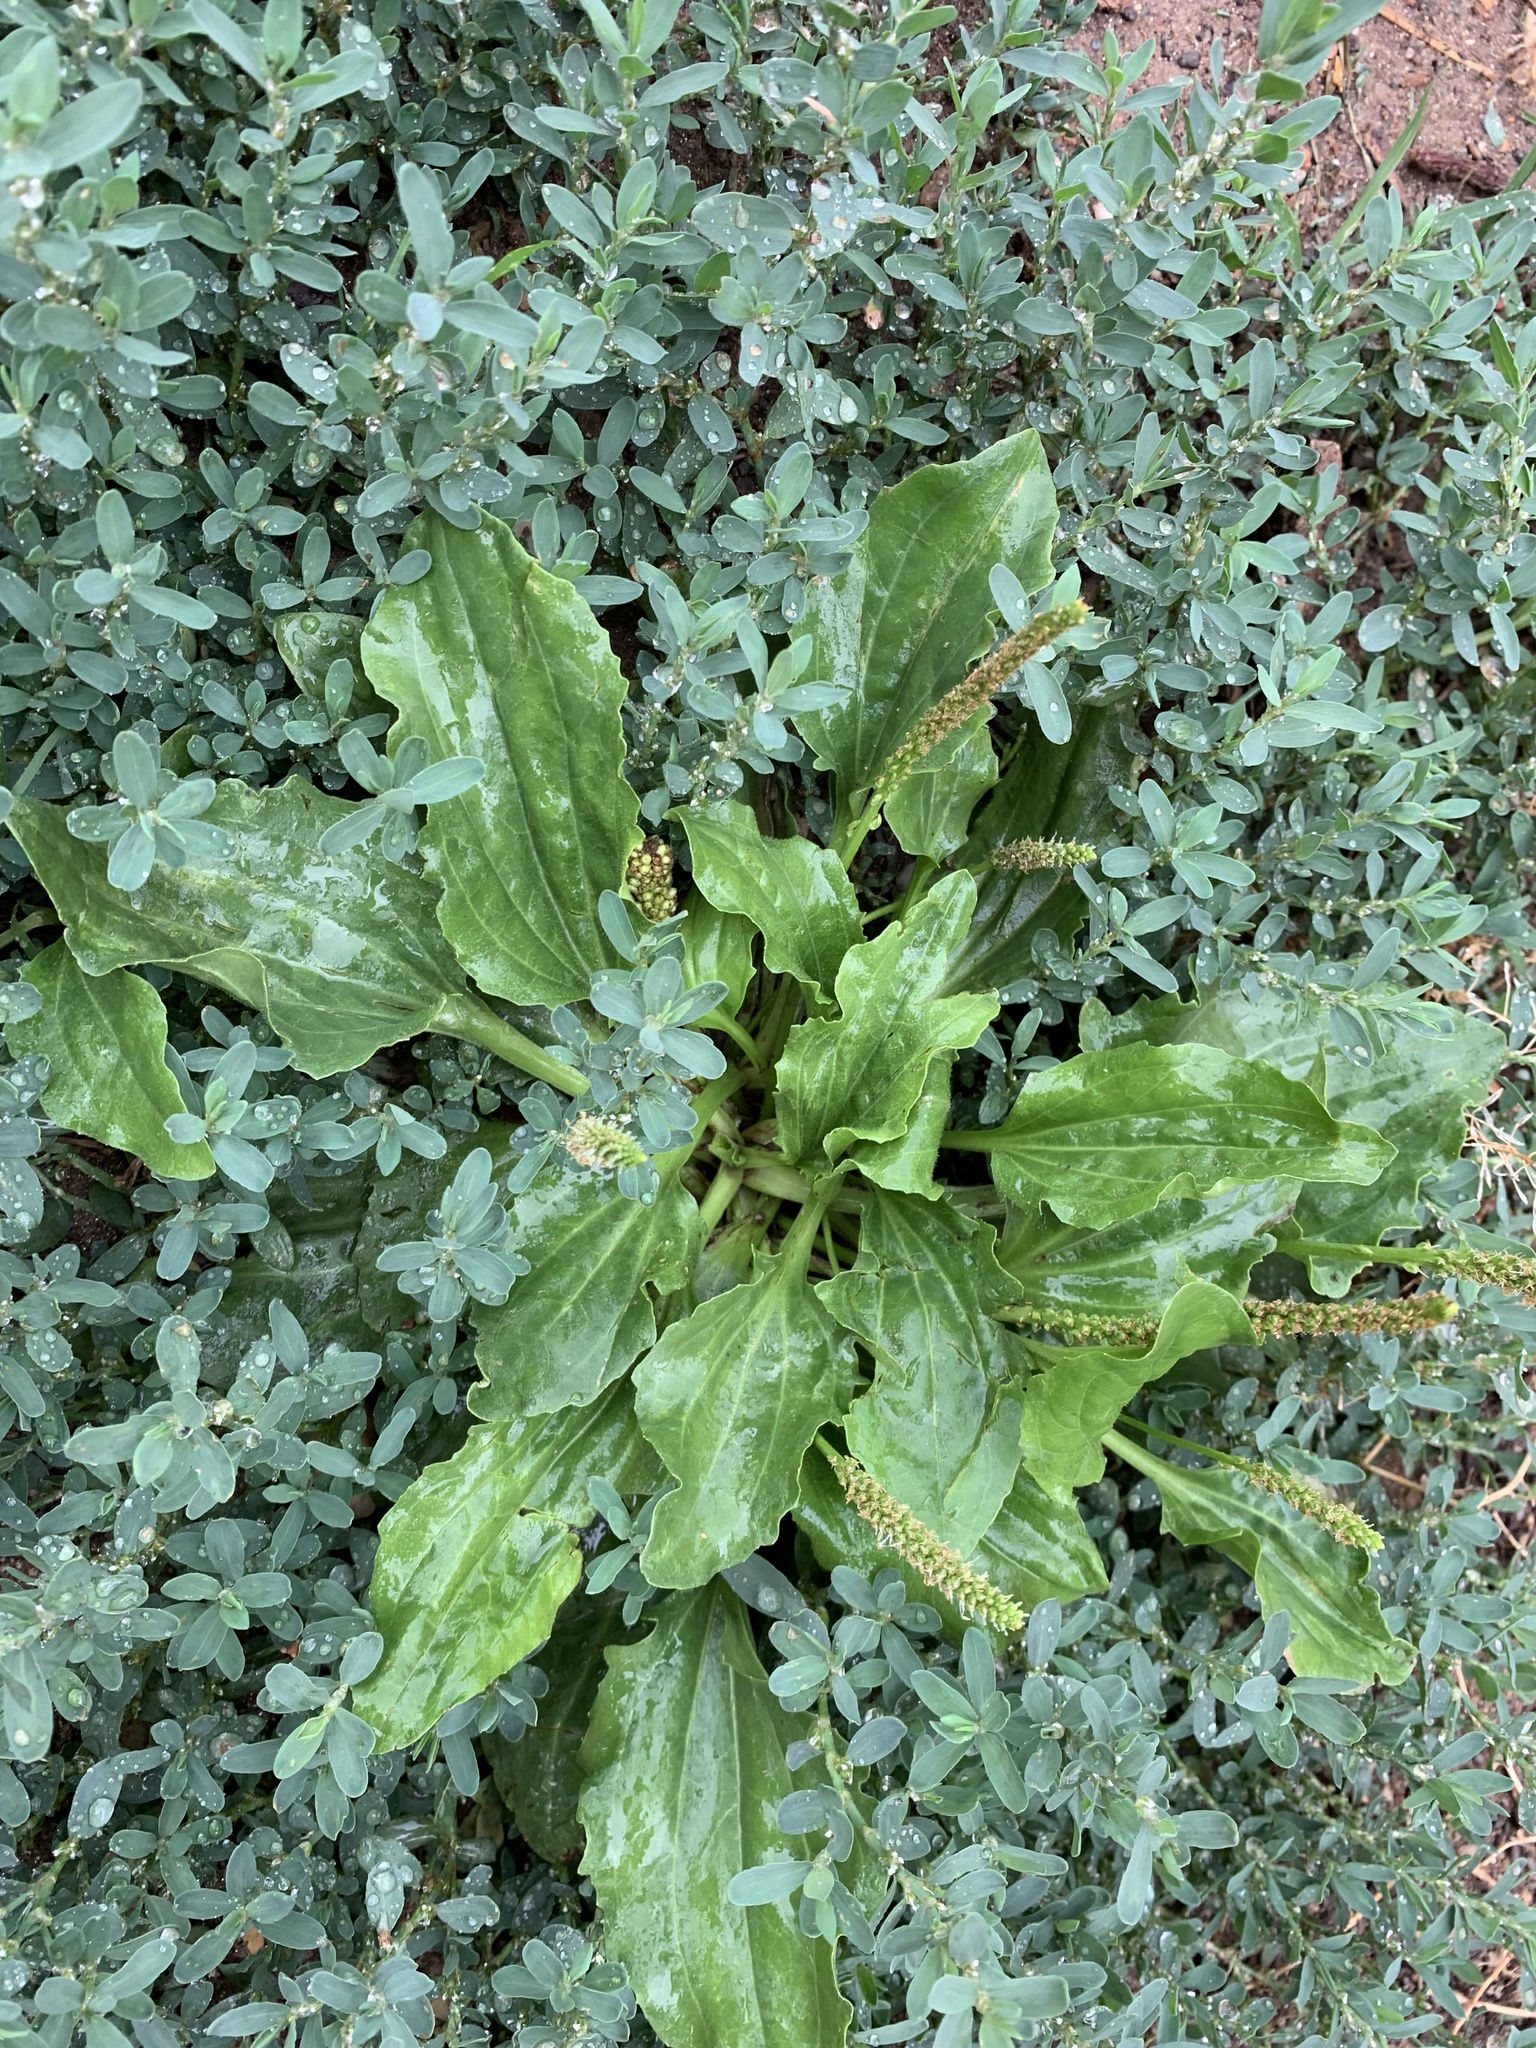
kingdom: Plantae
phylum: Tracheophyta
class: Magnoliopsida
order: Lamiales
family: Plantaginaceae
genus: Plantago
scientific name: Plantago major
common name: Common plantain
